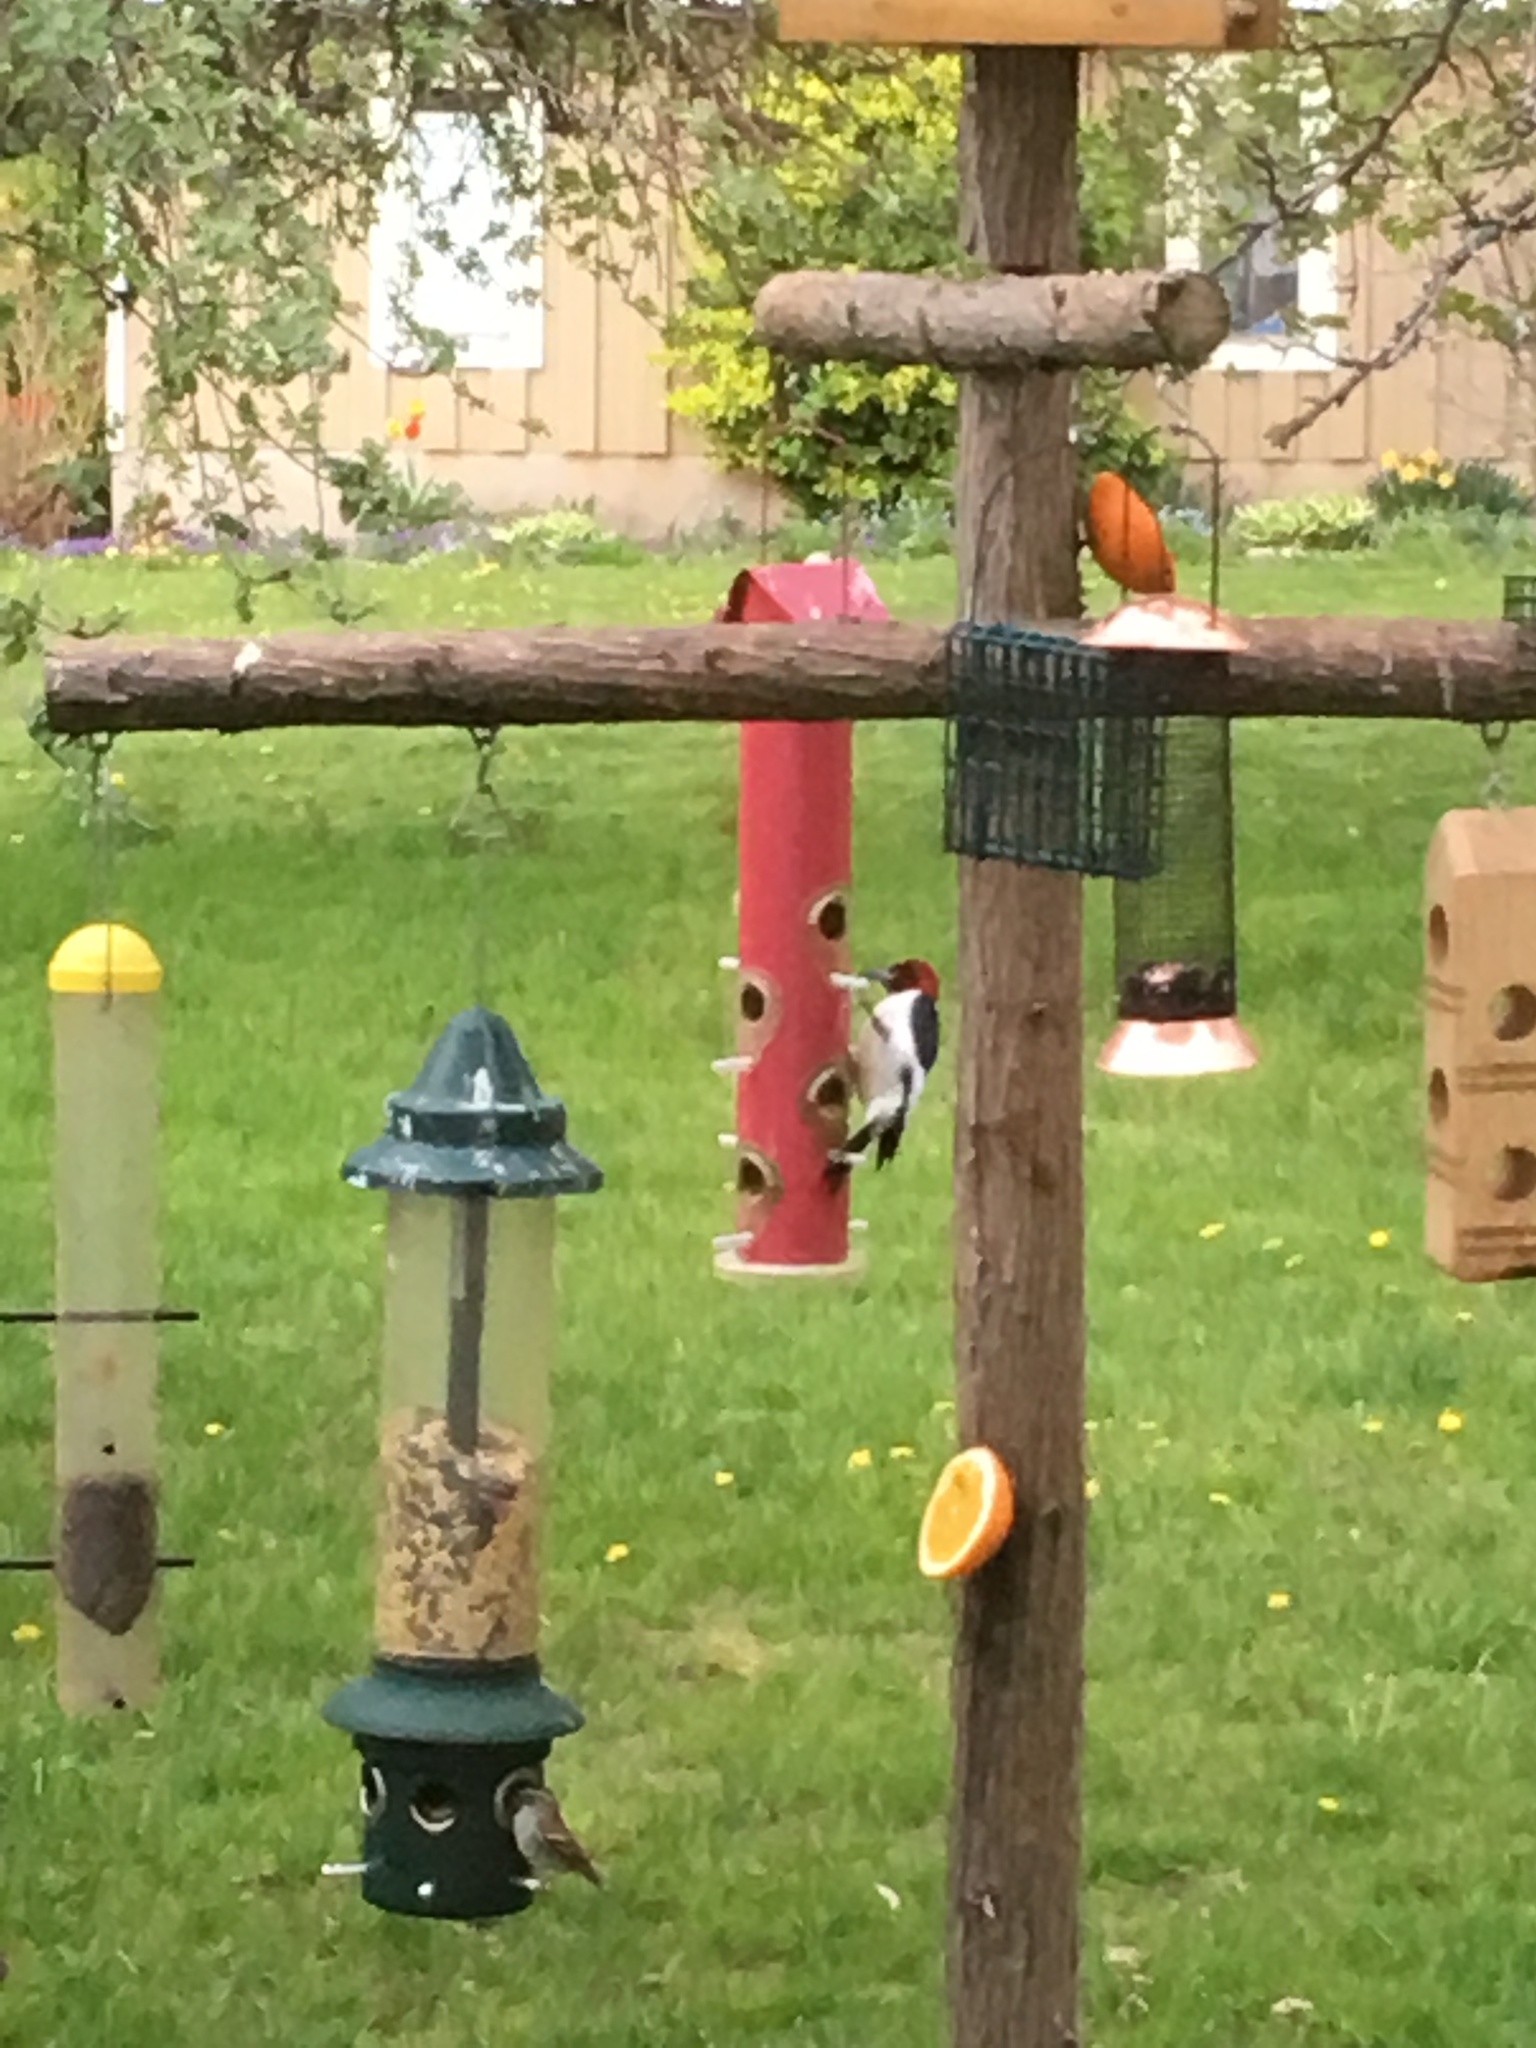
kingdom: Animalia
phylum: Chordata
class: Aves
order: Piciformes
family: Picidae
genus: Melanerpes
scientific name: Melanerpes erythrocephalus
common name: Red-headed woodpecker
